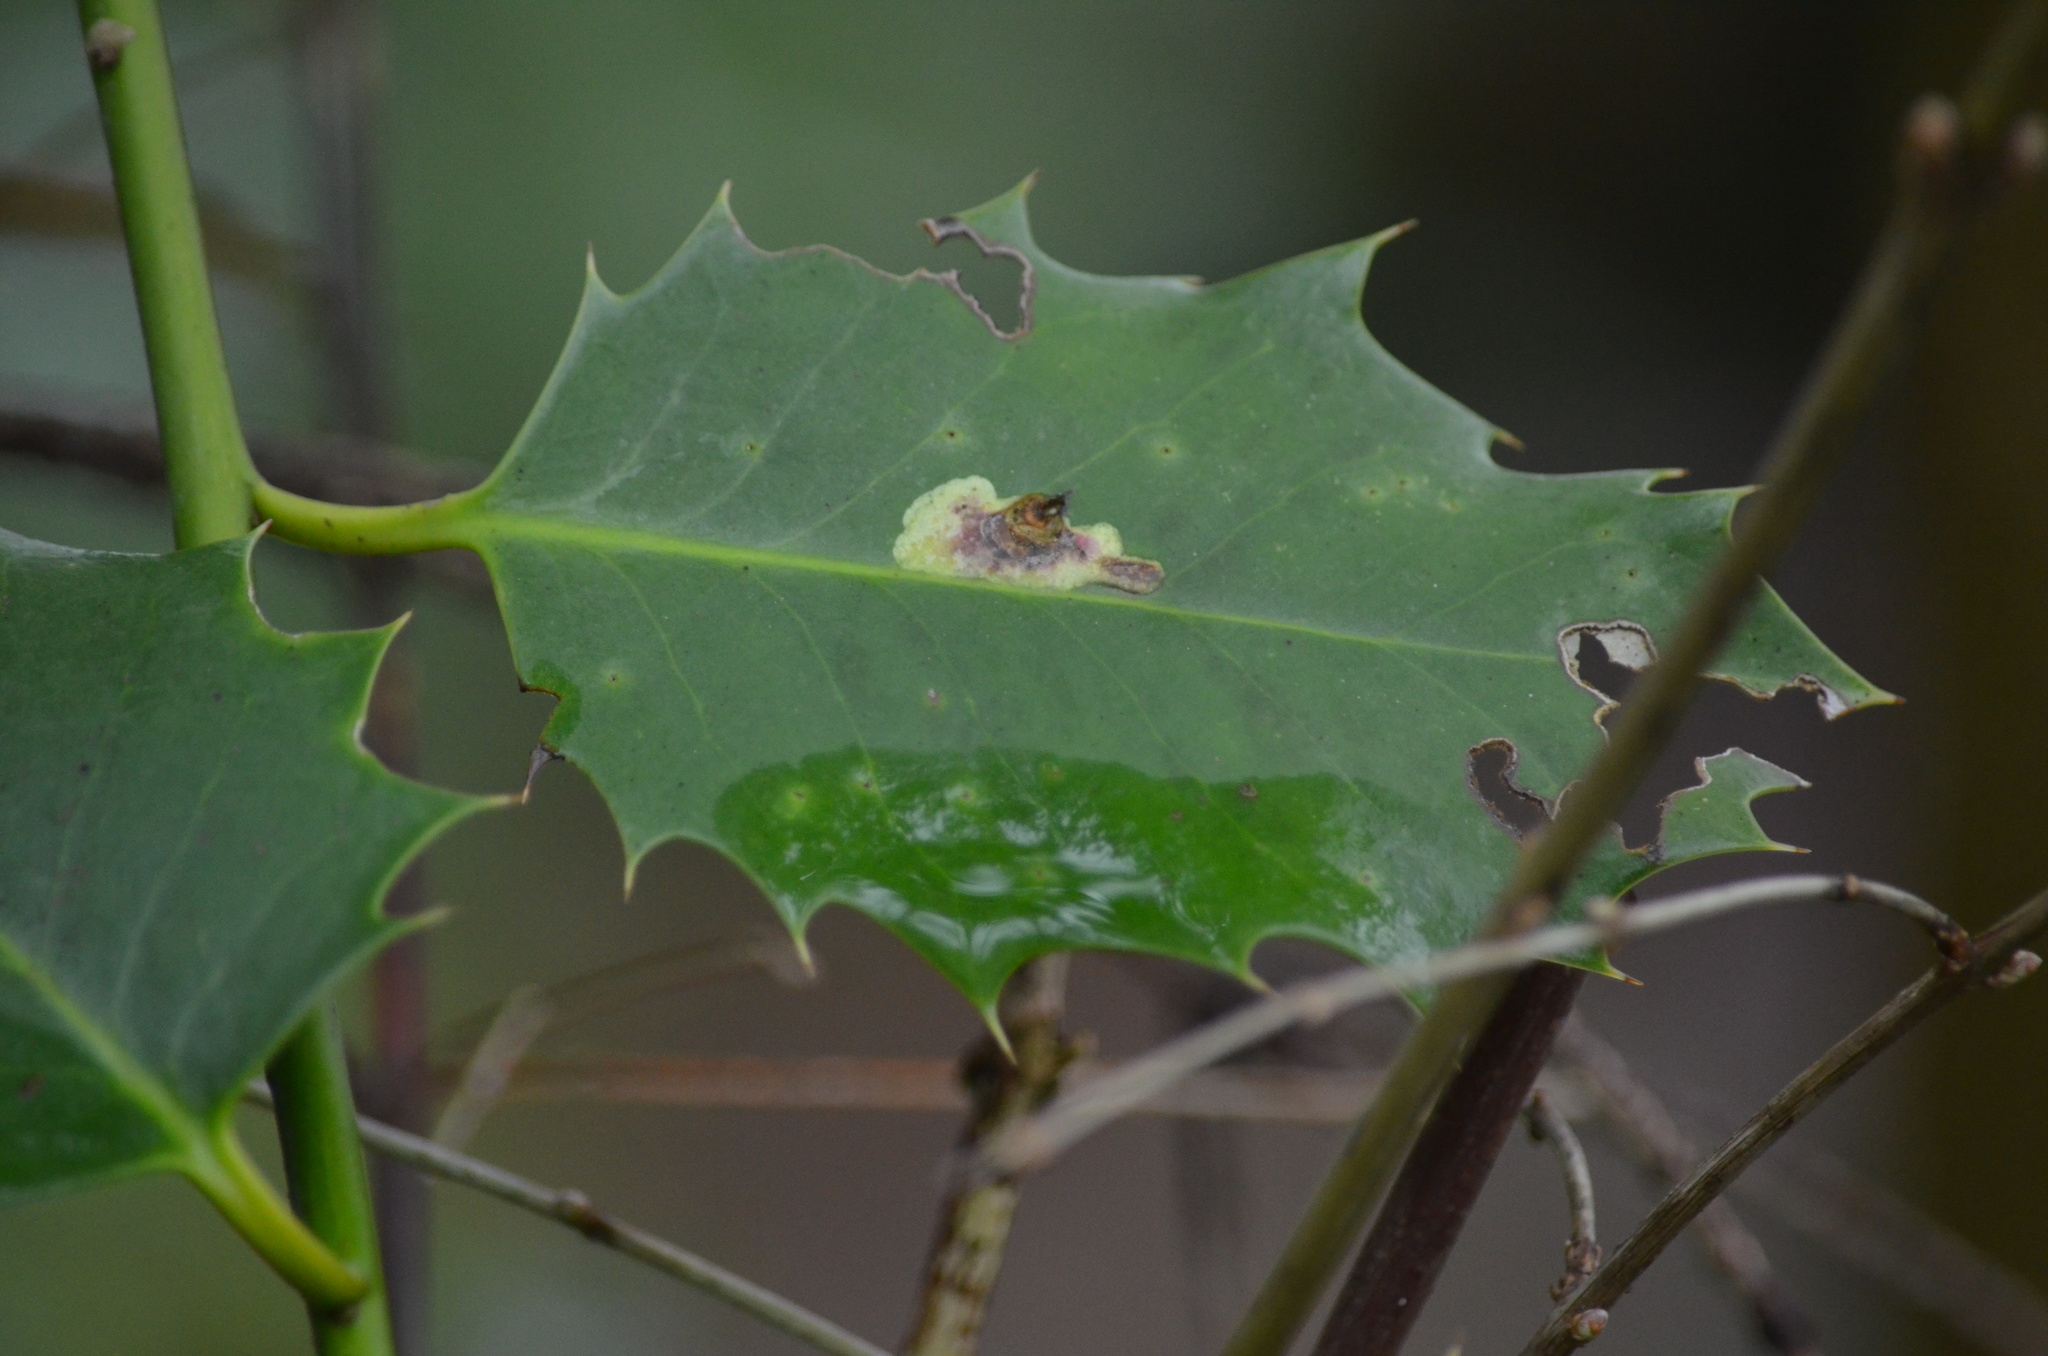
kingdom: Animalia
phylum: Arthropoda
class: Insecta
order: Diptera
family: Agromyzidae
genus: Phytomyza
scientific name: Phytomyza ilicis
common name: Holly leafminer
